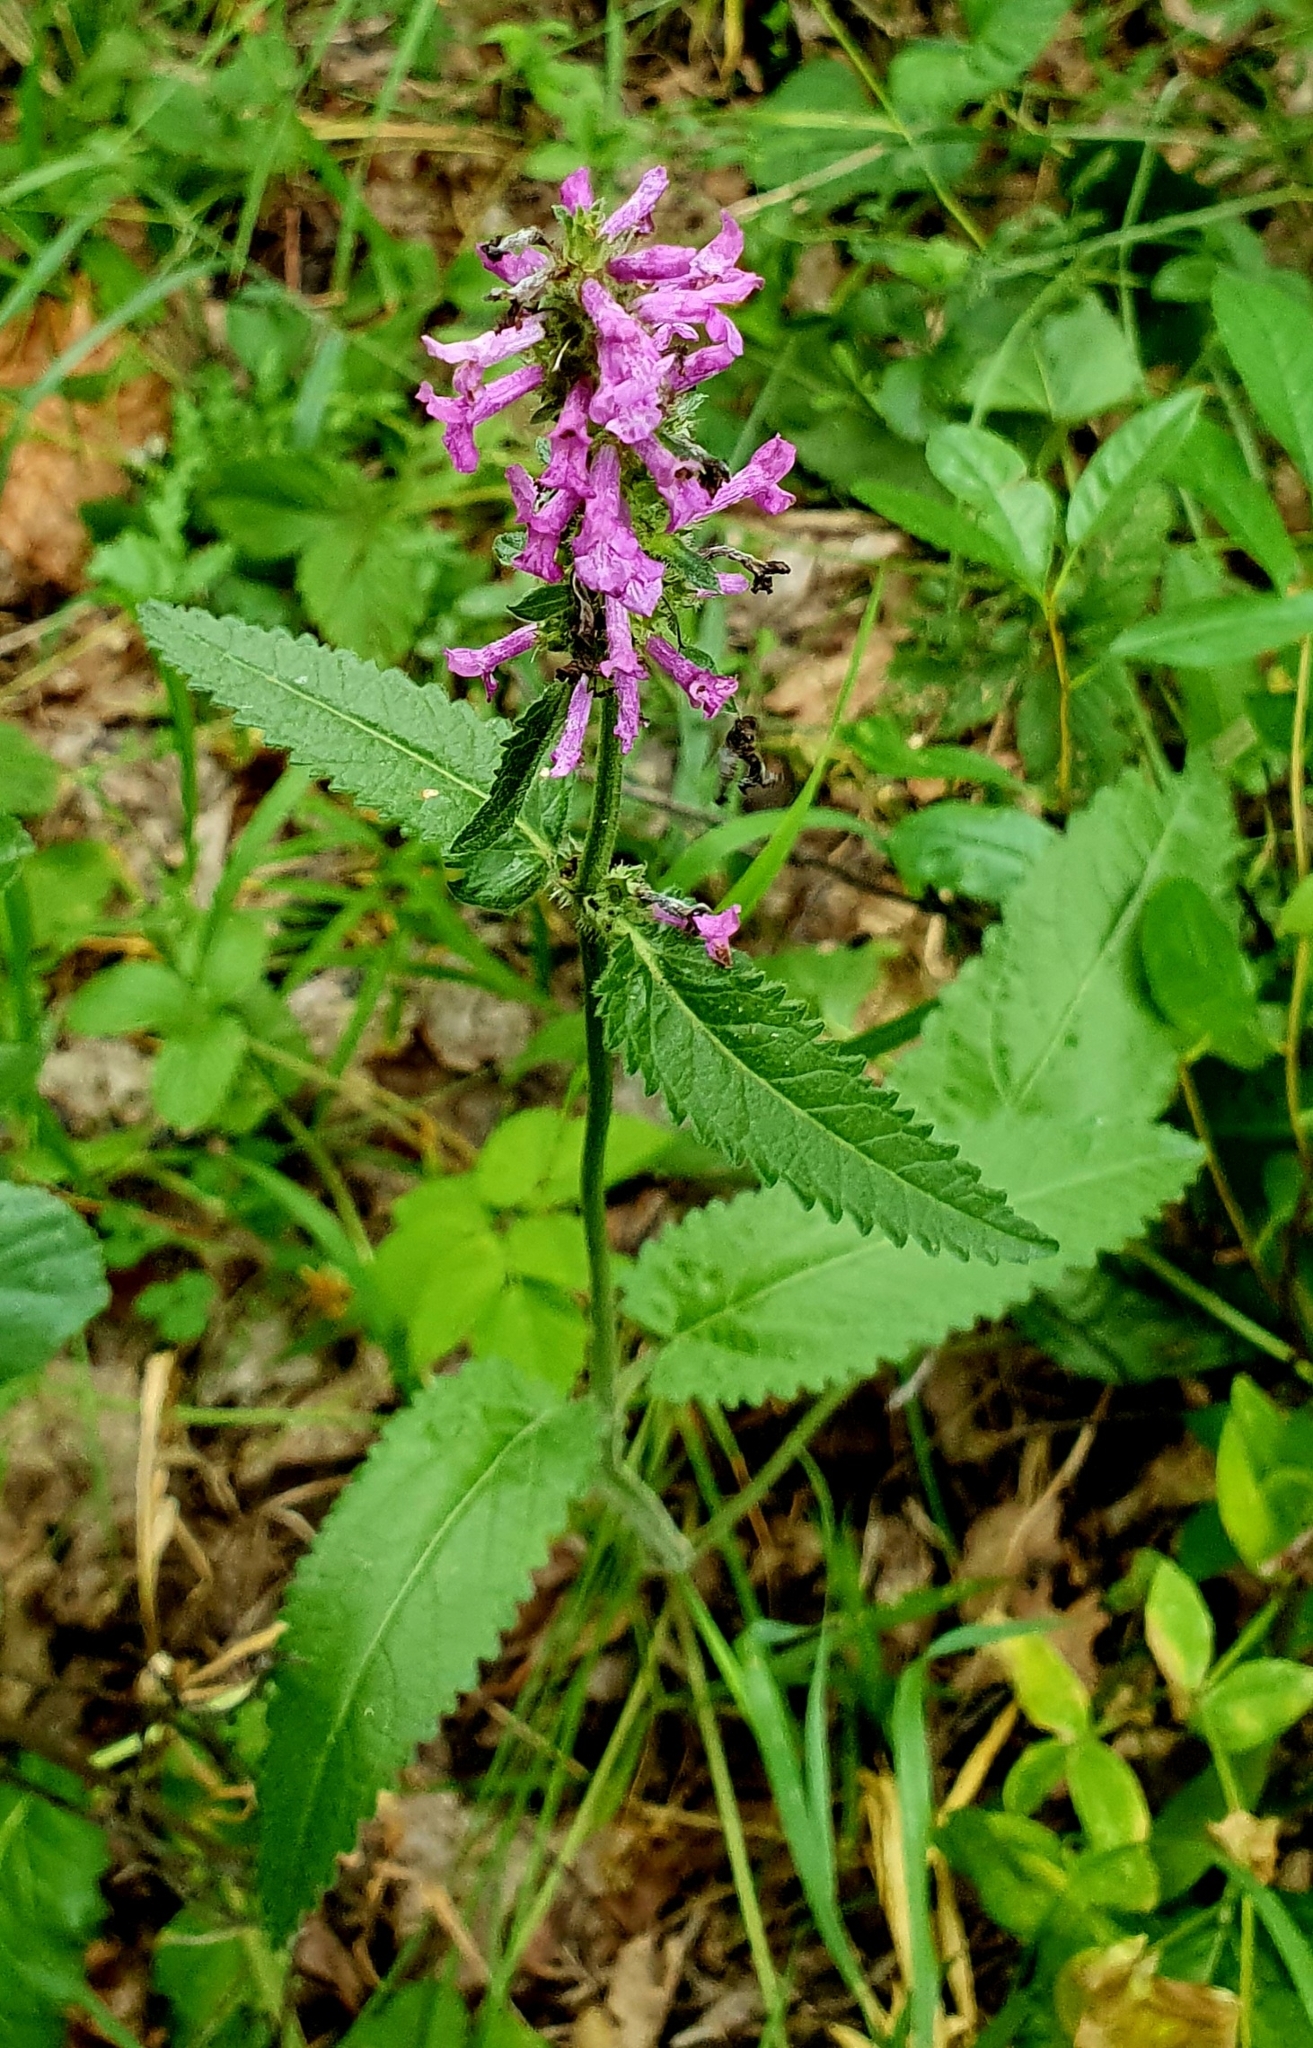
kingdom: Plantae
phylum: Tracheophyta
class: Magnoliopsida
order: Lamiales
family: Lamiaceae
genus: Betonica
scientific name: Betonica officinalis
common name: Bishop's-wort
